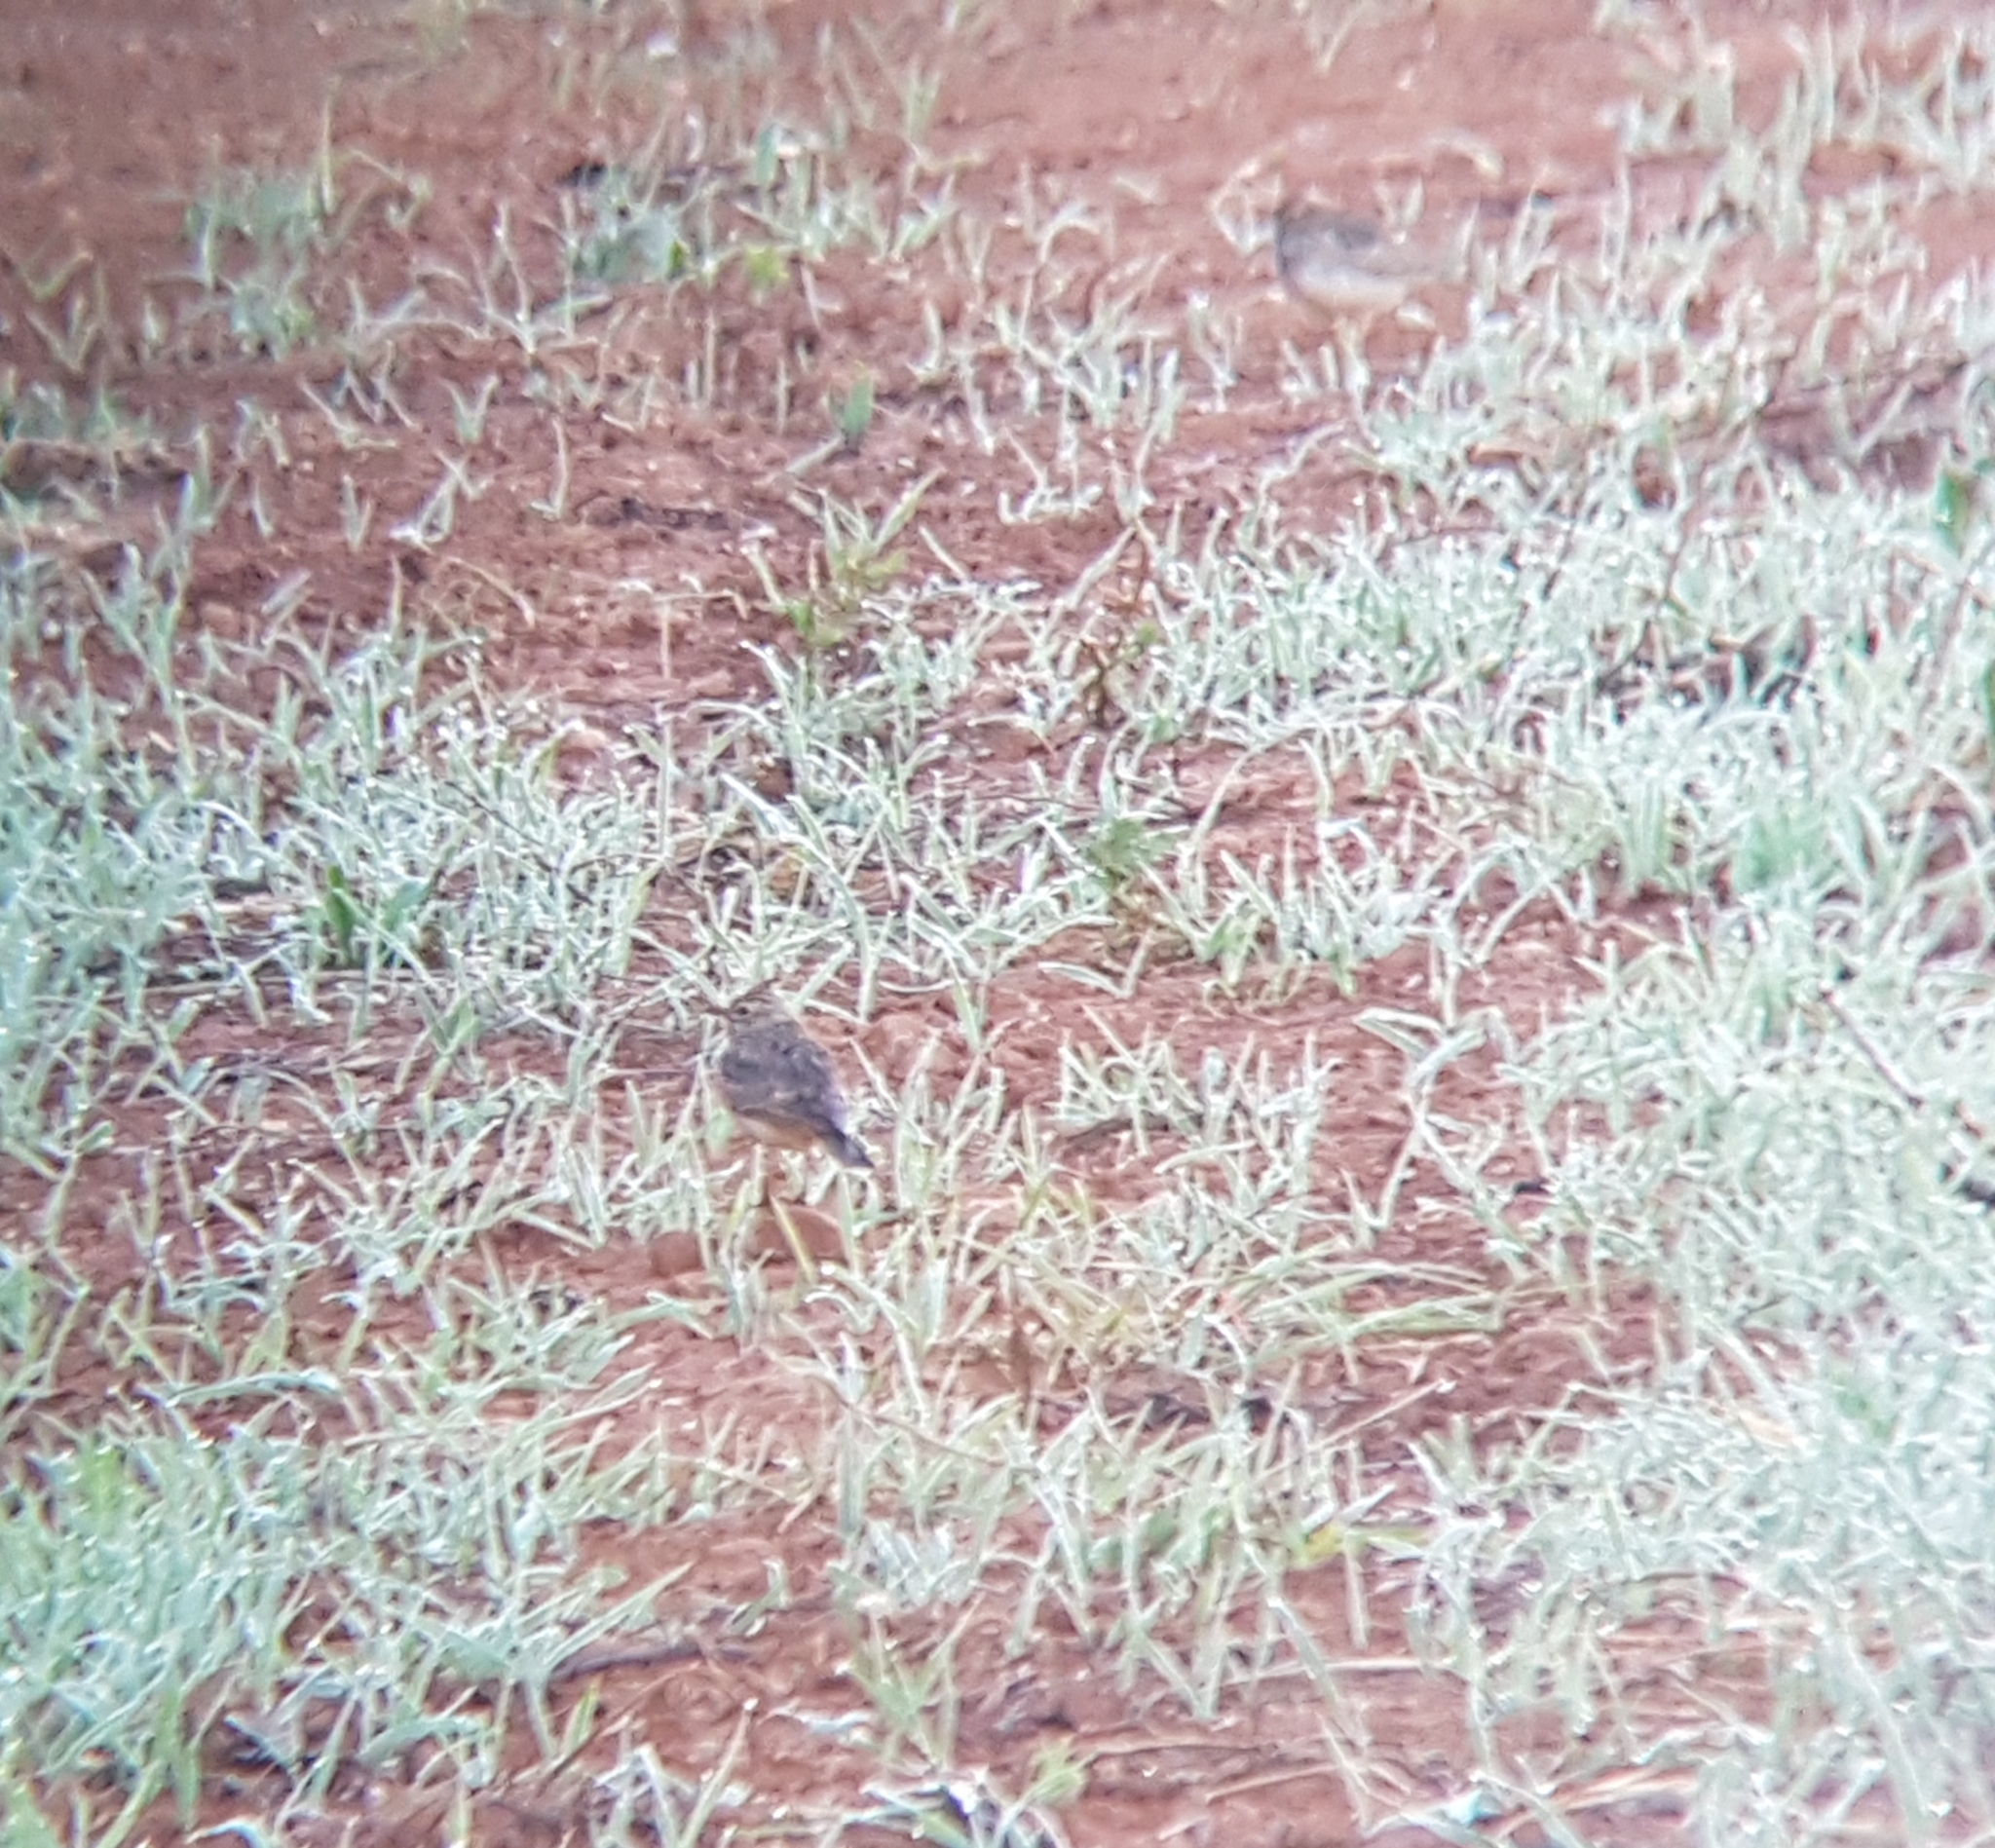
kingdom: Animalia
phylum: Chordata
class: Aves
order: Passeriformes
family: Alaudidae
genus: Galerida
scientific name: Galerida theklae
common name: Thekla lark
